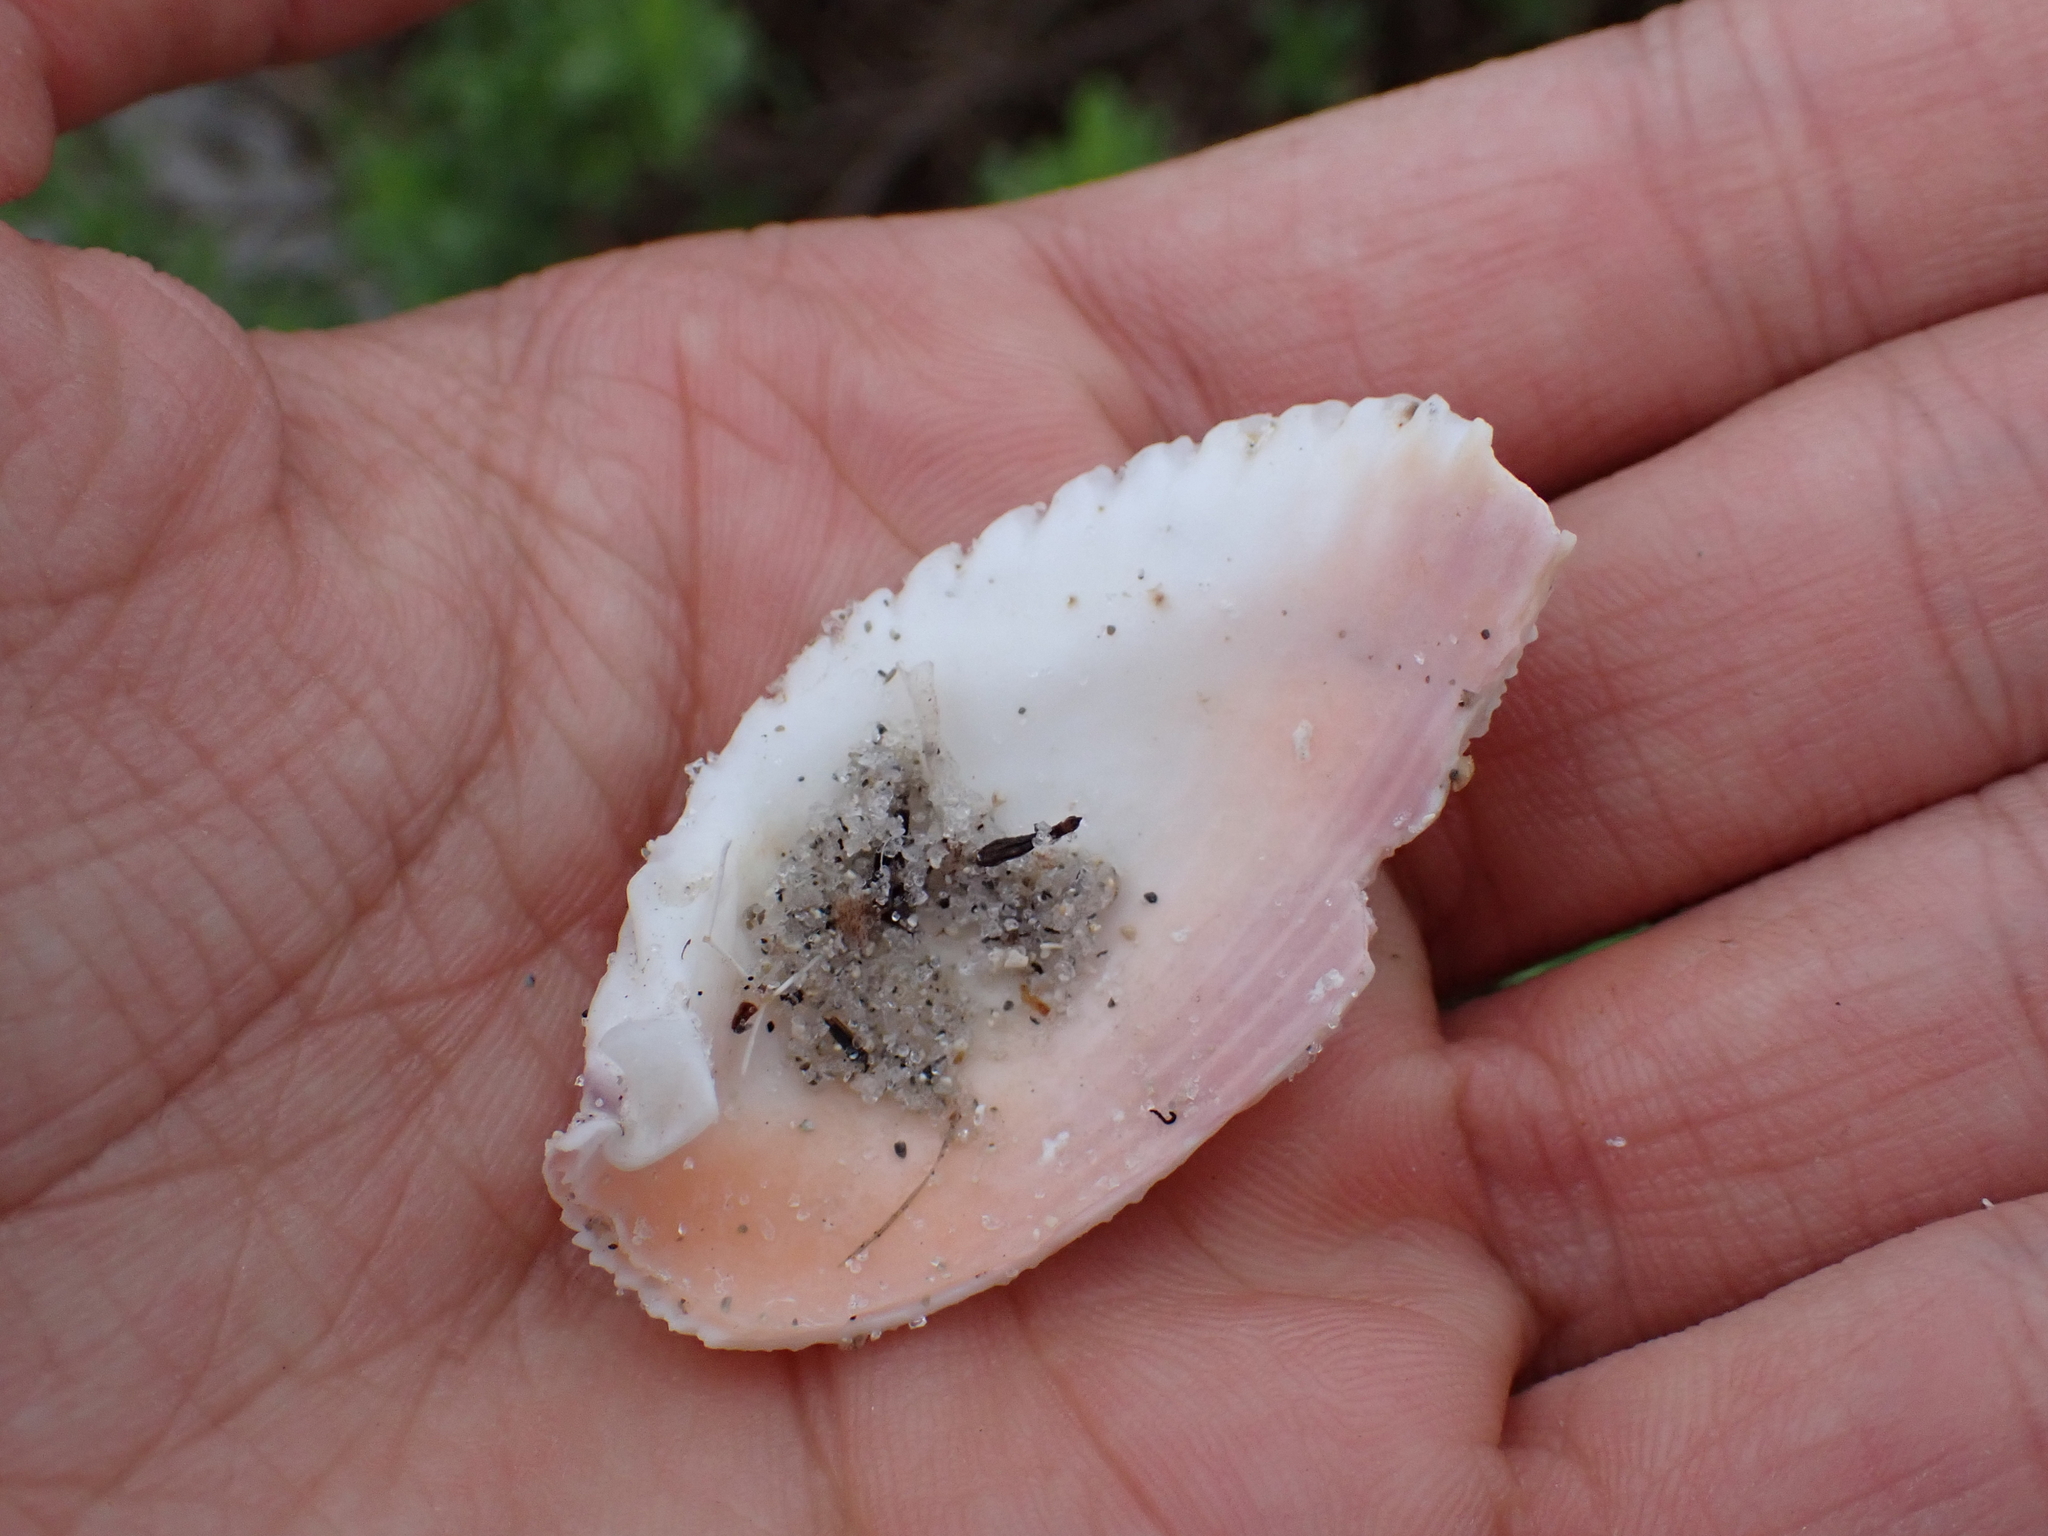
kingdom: Animalia
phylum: Mollusca
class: Bivalvia
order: Cardiida
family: Cardiidae
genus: Trachycardium
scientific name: Trachycardium egmontianum
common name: Florida pricklycockle
